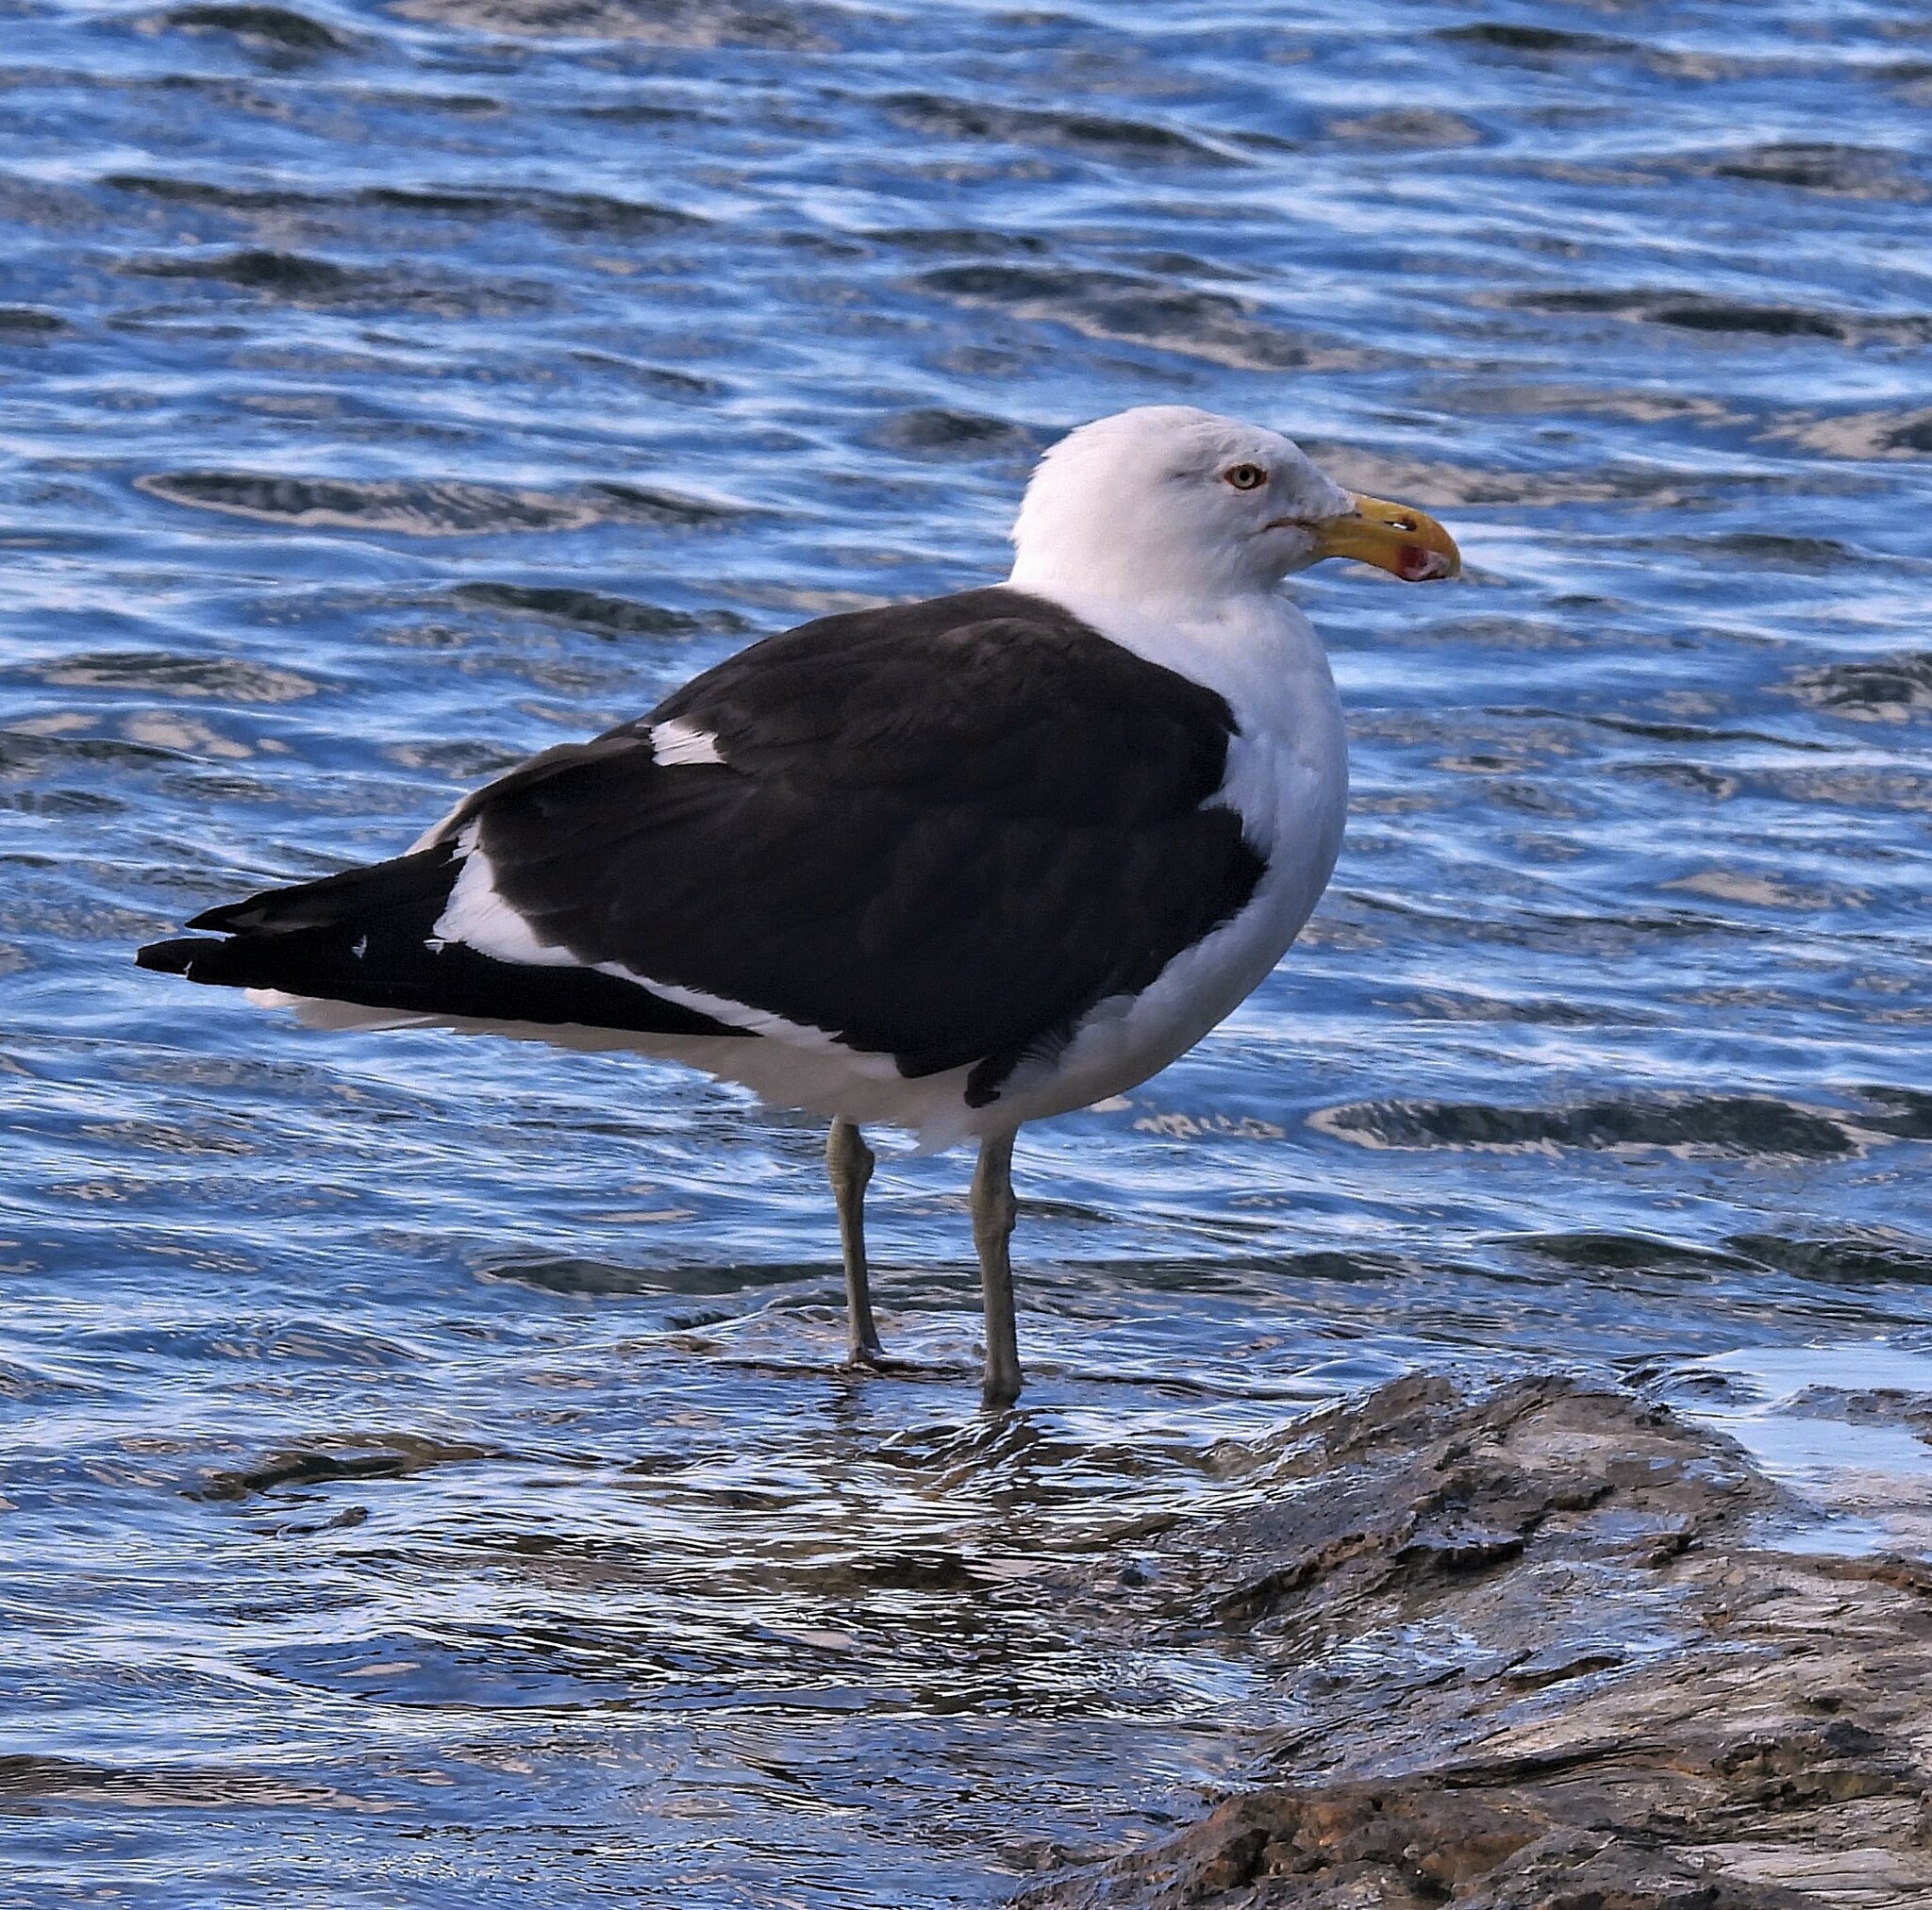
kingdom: Animalia
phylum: Chordata
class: Aves
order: Charadriiformes
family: Laridae
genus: Larus
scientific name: Larus dominicanus
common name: Kelp gull
